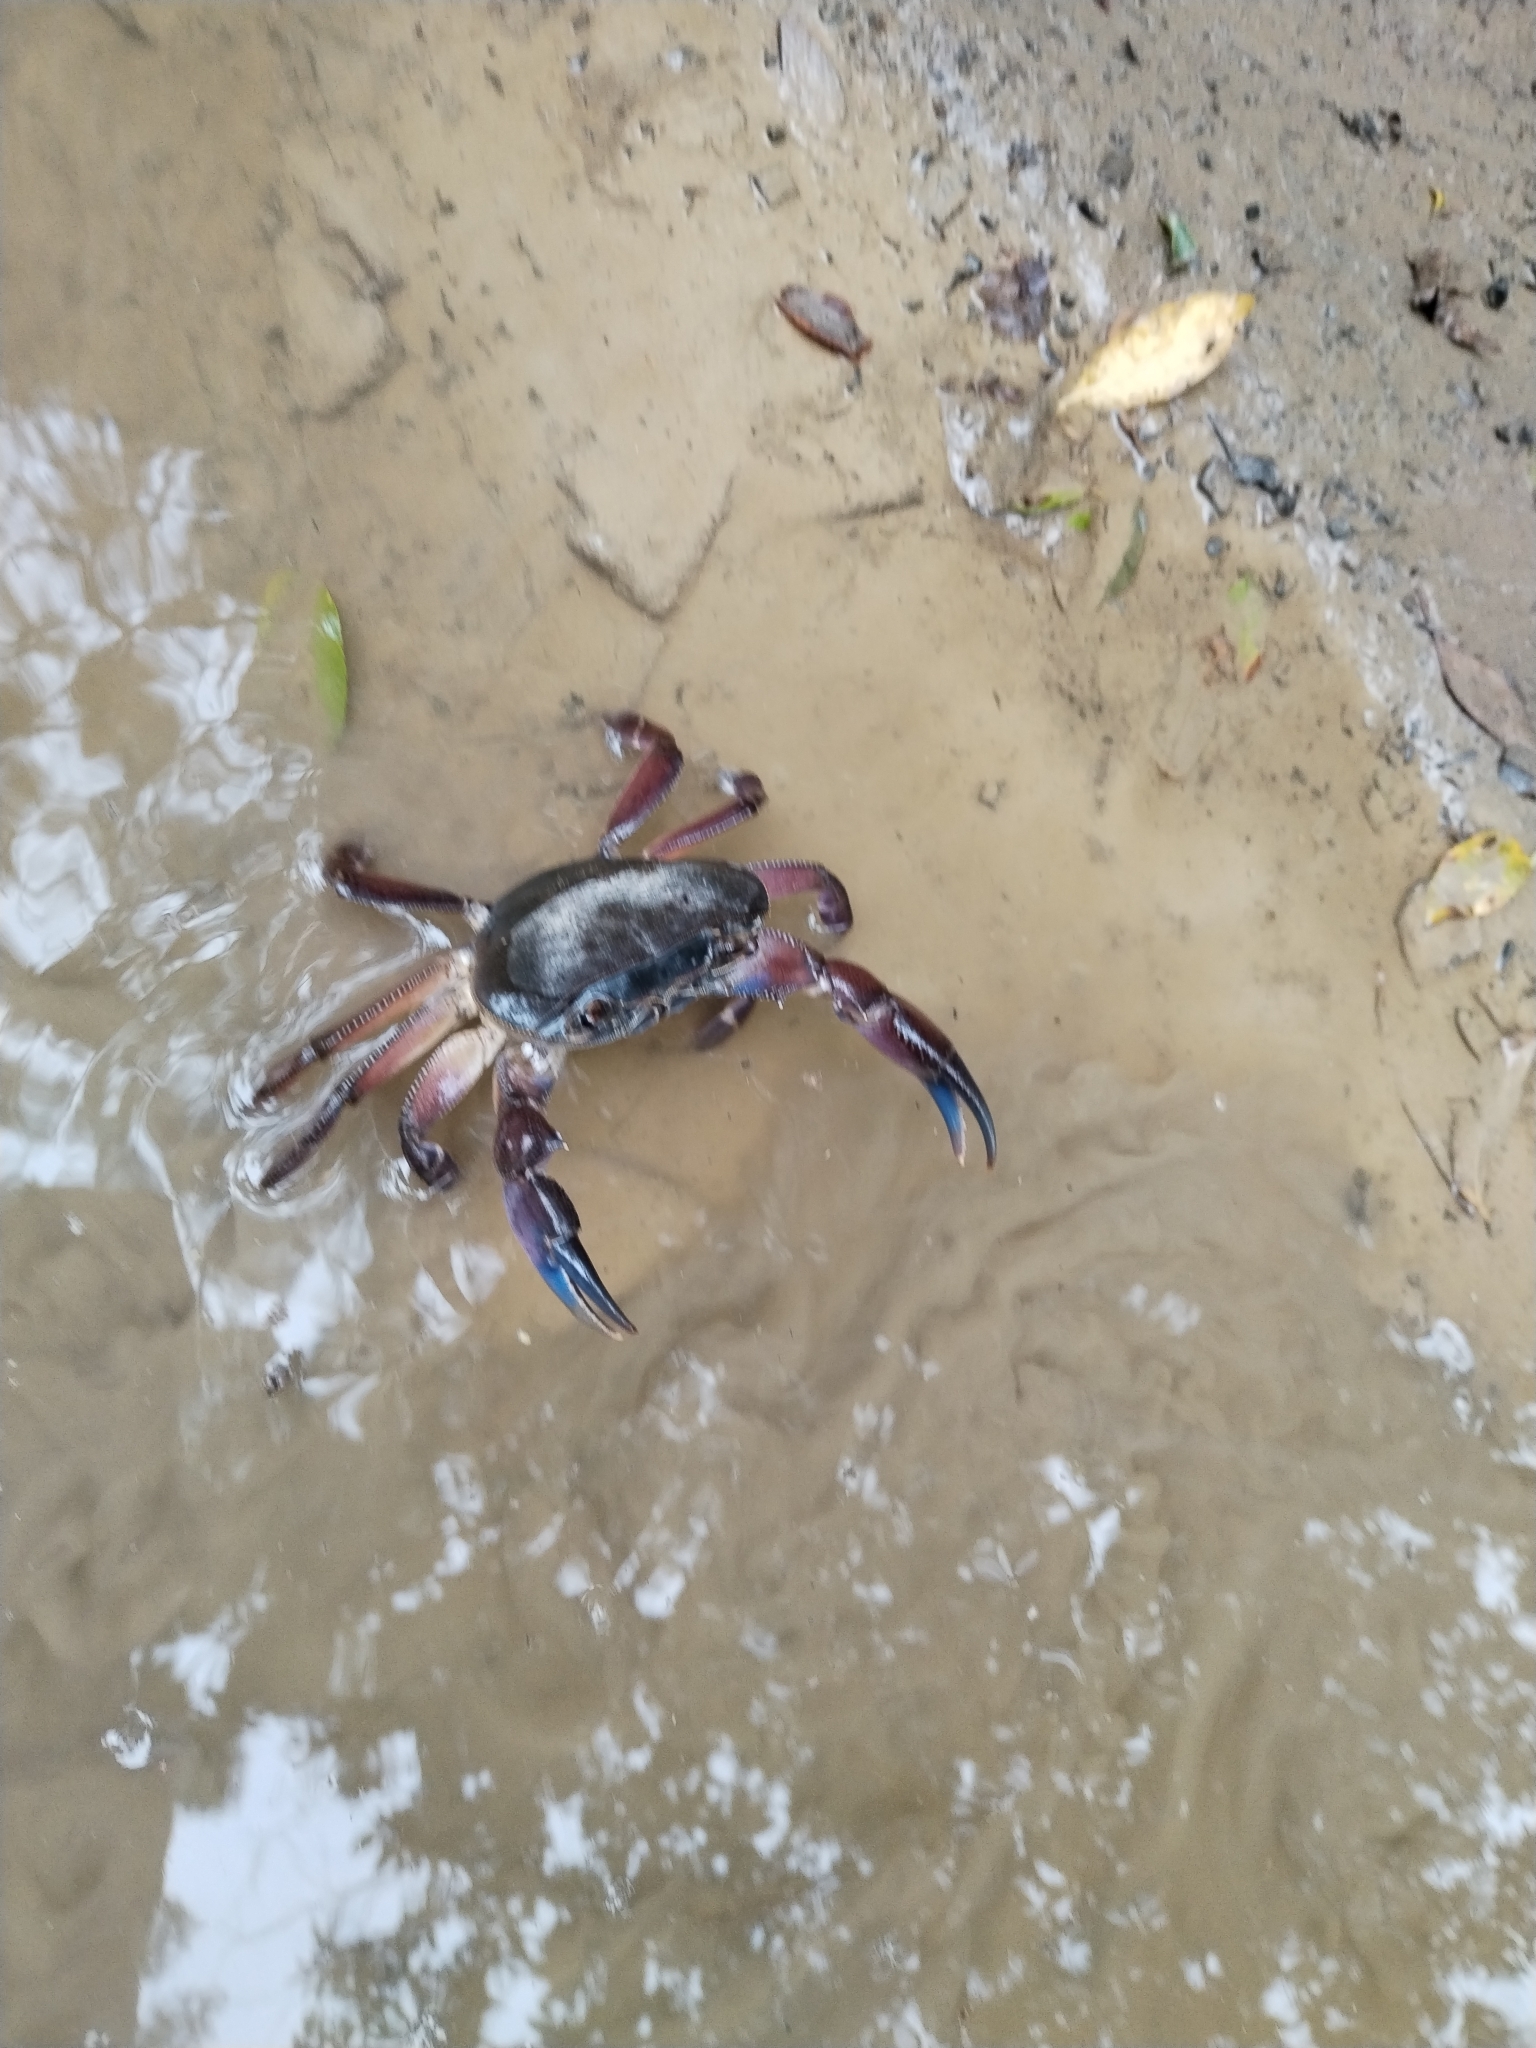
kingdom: Animalia
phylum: Arthropoda
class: Malacostraca
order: Decapoda
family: Potamonautidae
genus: Potamonautes
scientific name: Potamonautes danielsi
